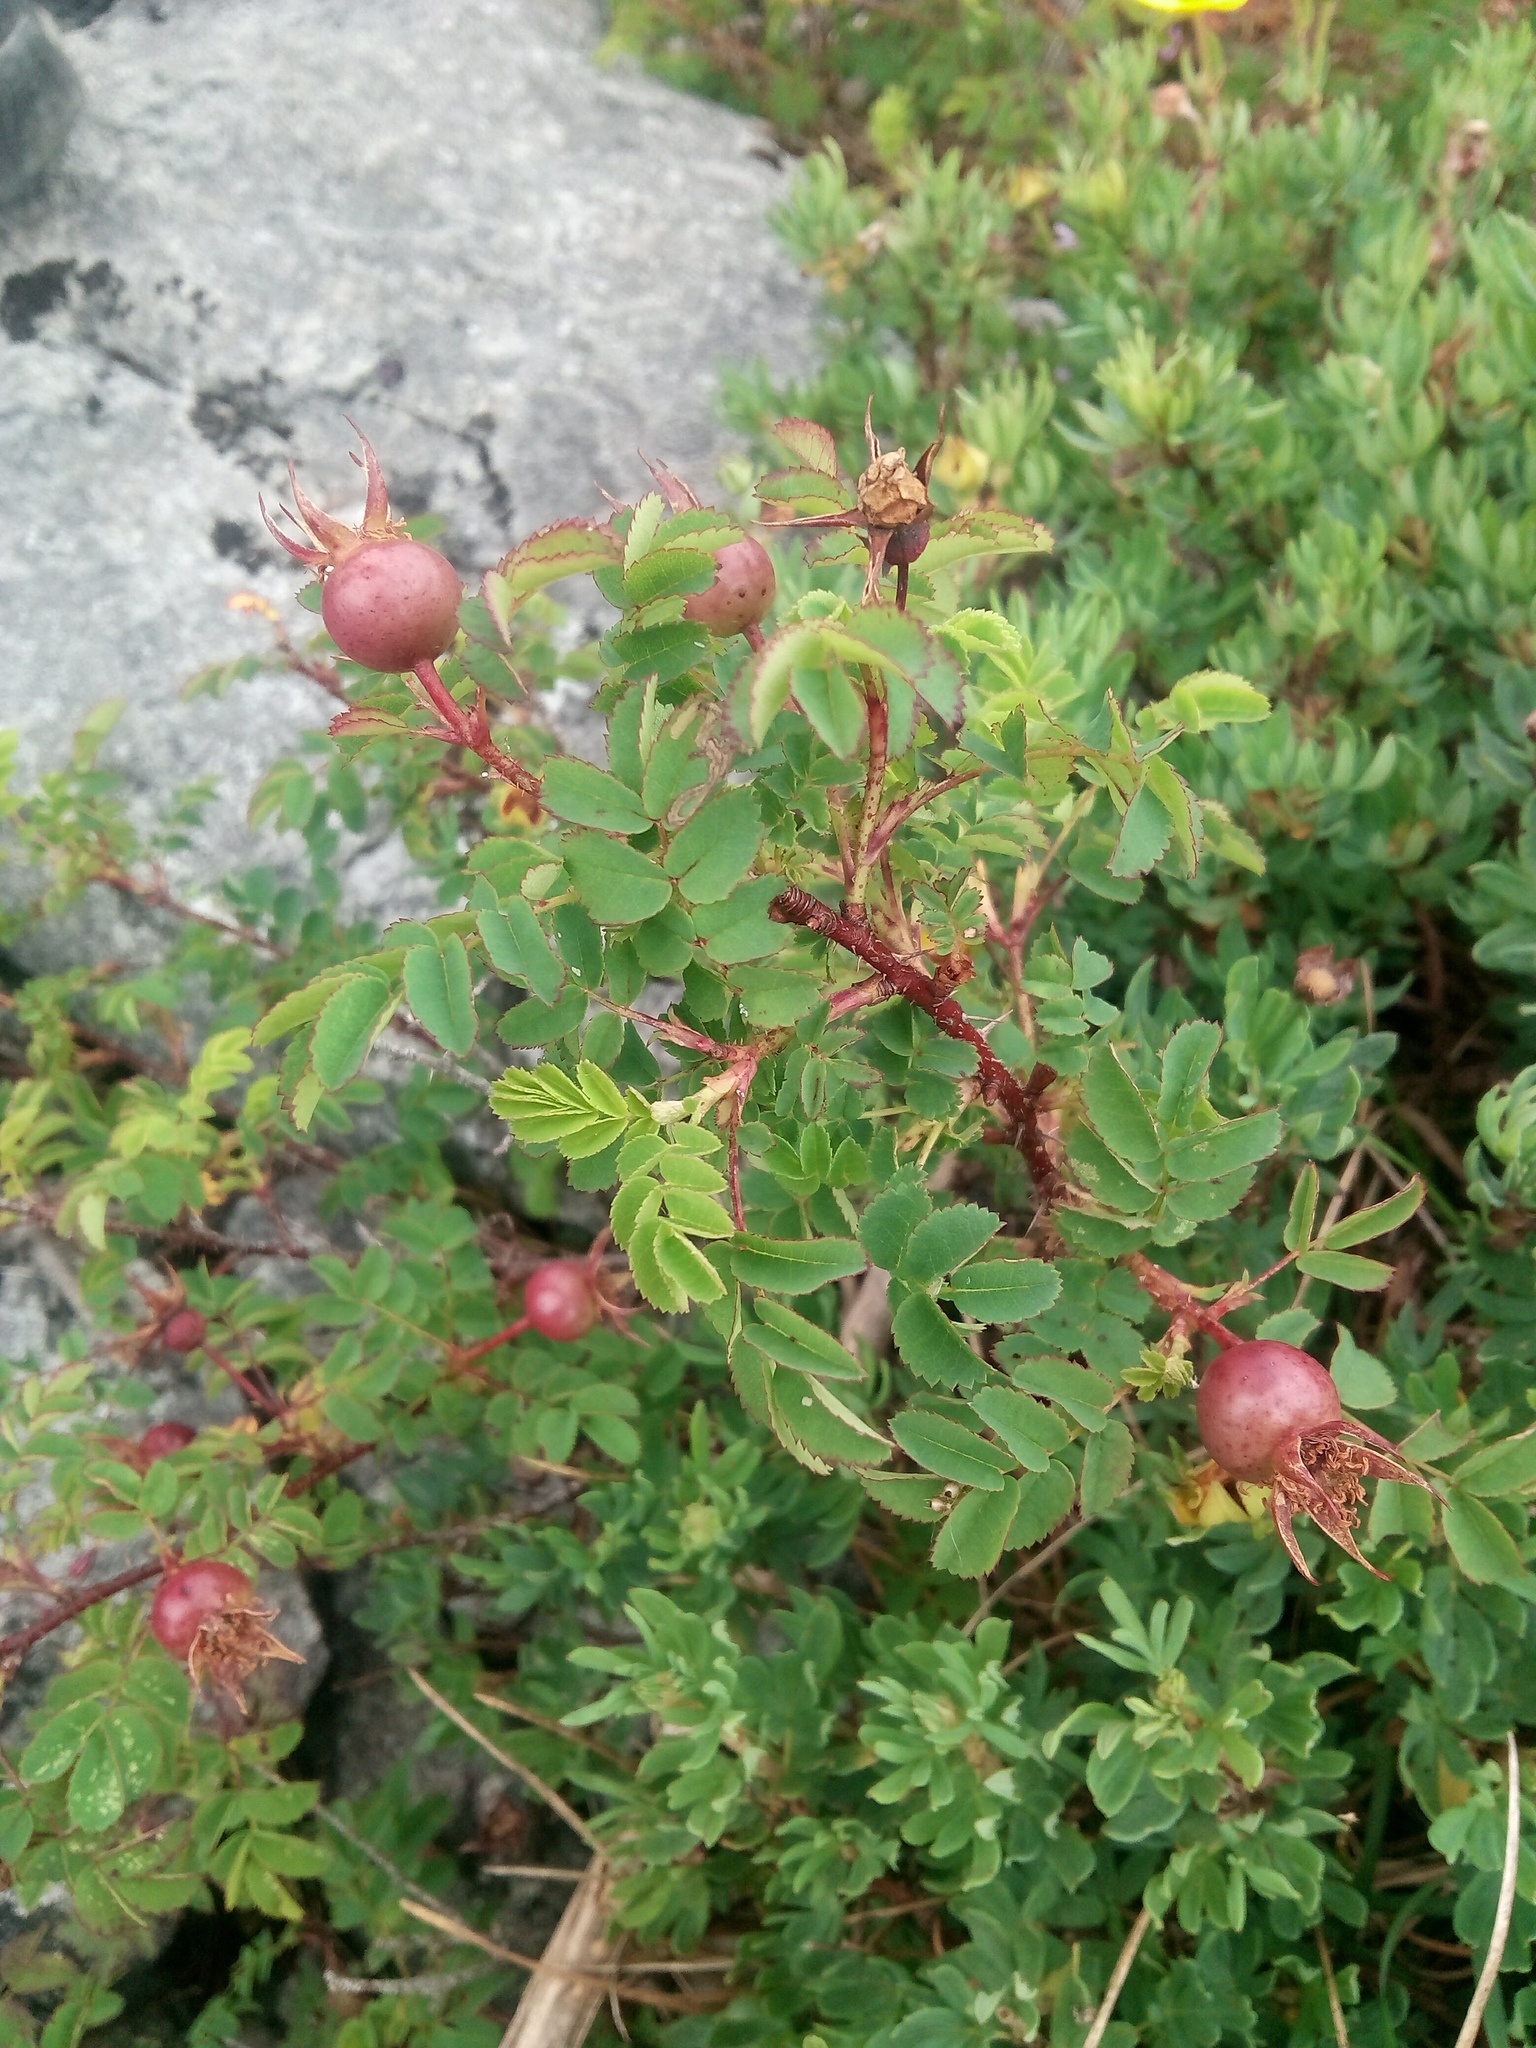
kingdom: Plantae
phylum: Tracheophyta
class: Magnoliopsida
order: Rosales
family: Rosaceae
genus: Rosa
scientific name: Rosa spinosissima
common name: Burnet rose
